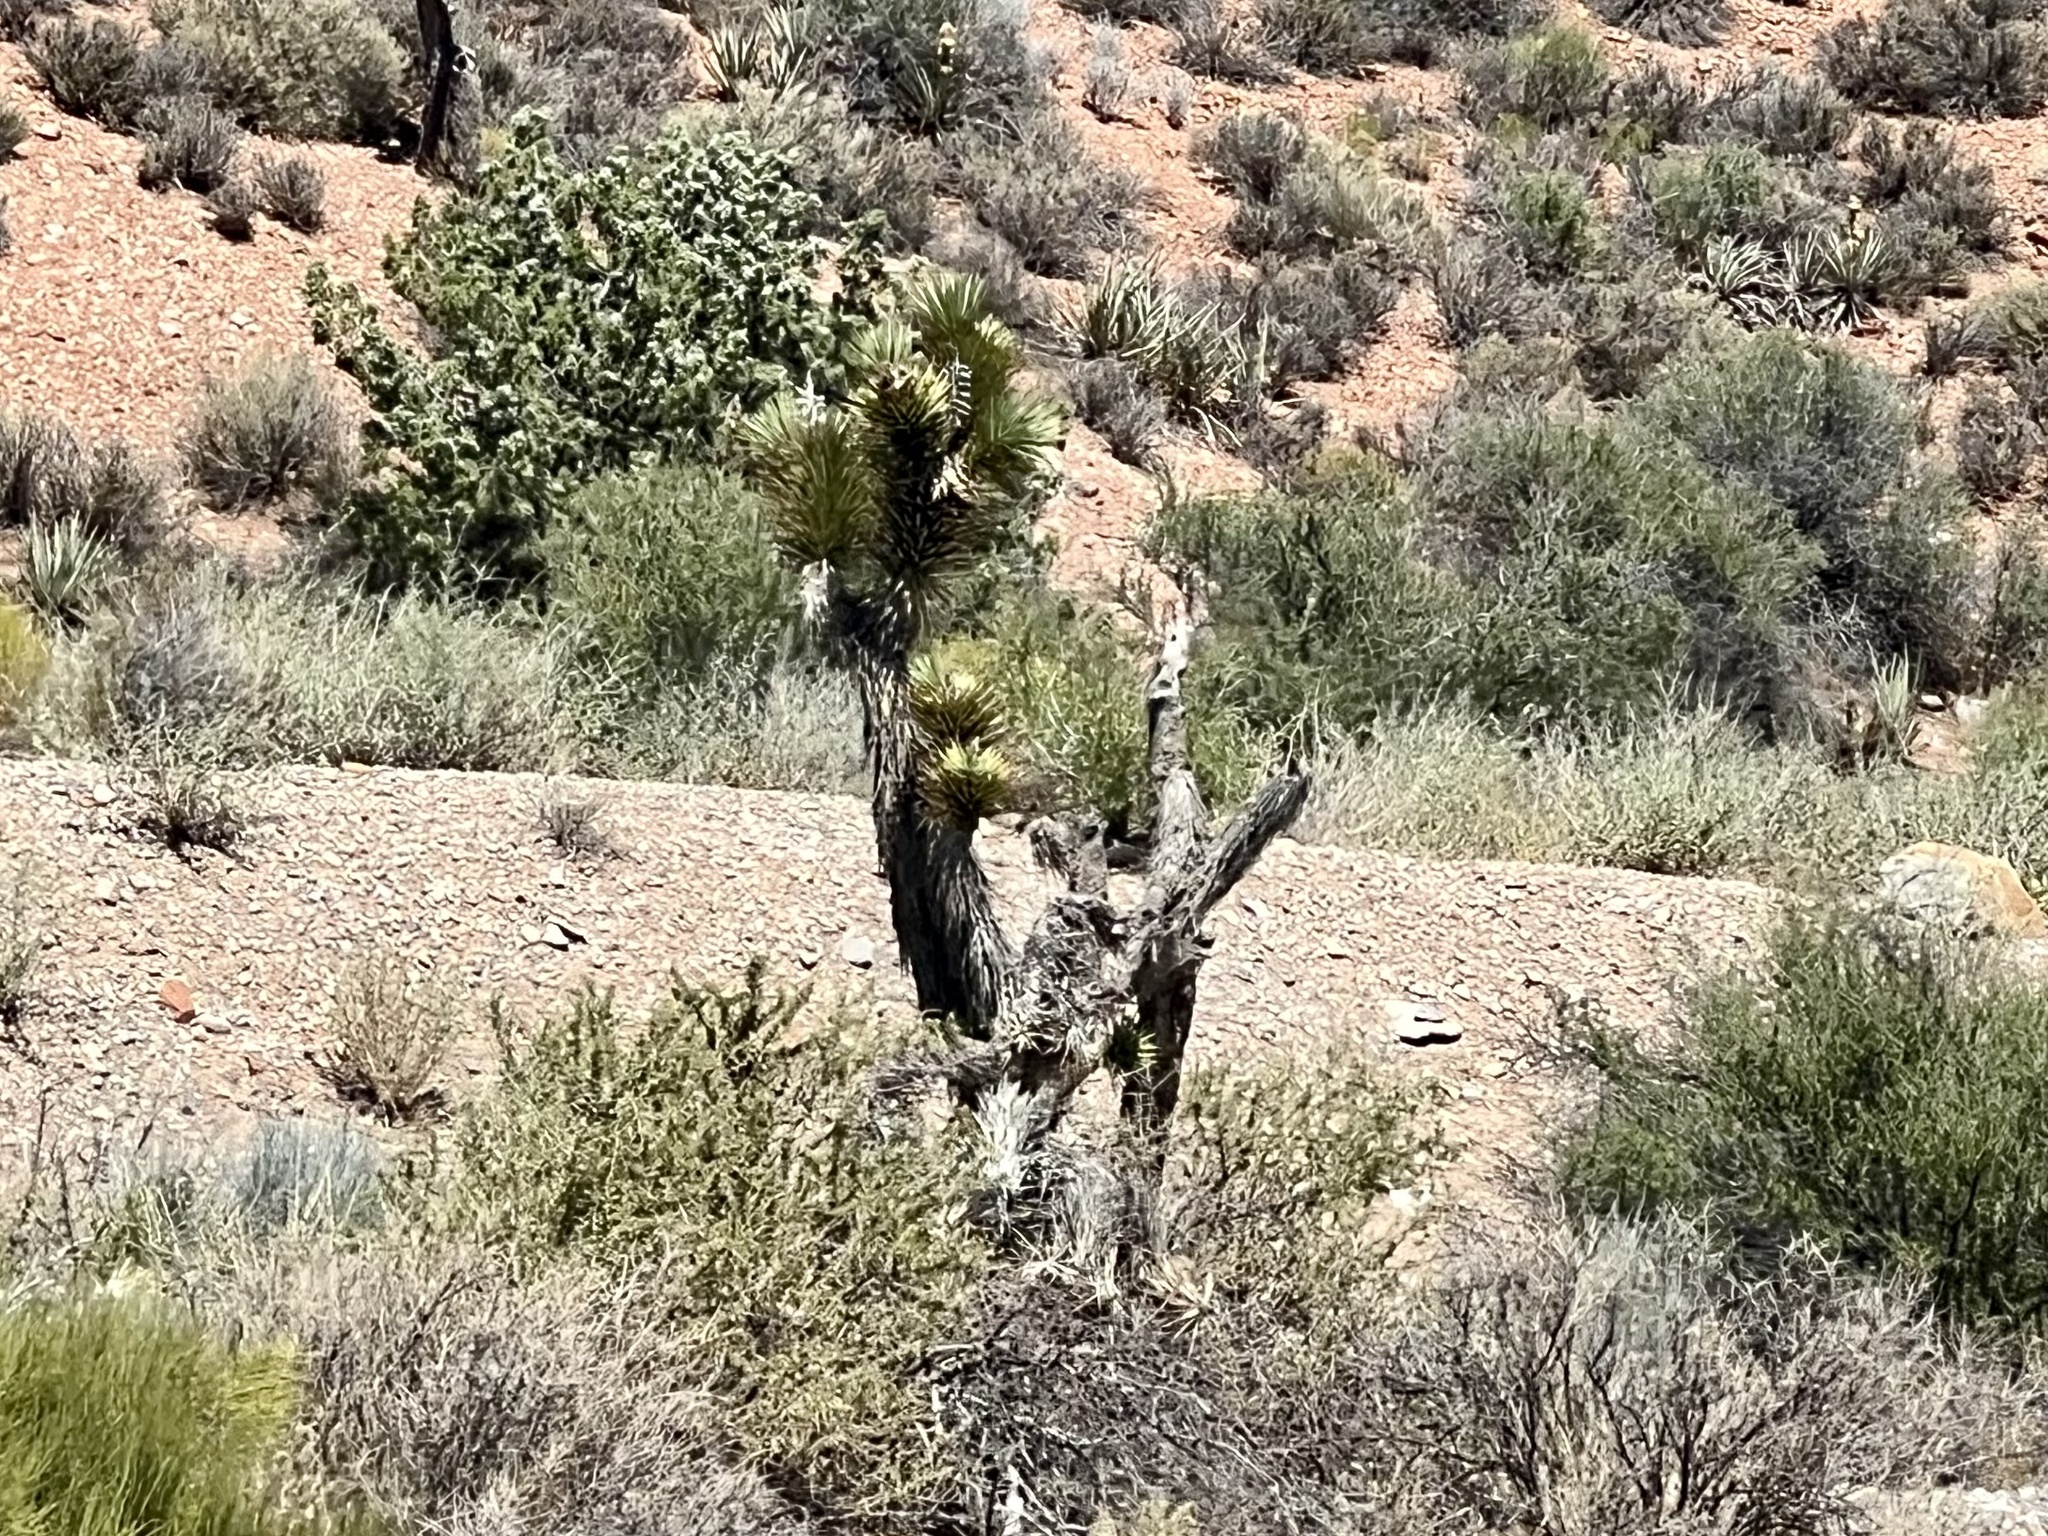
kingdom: Plantae
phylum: Tracheophyta
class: Liliopsida
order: Asparagales
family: Asparagaceae
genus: Yucca
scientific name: Yucca brevifolia
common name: Joshua tree
